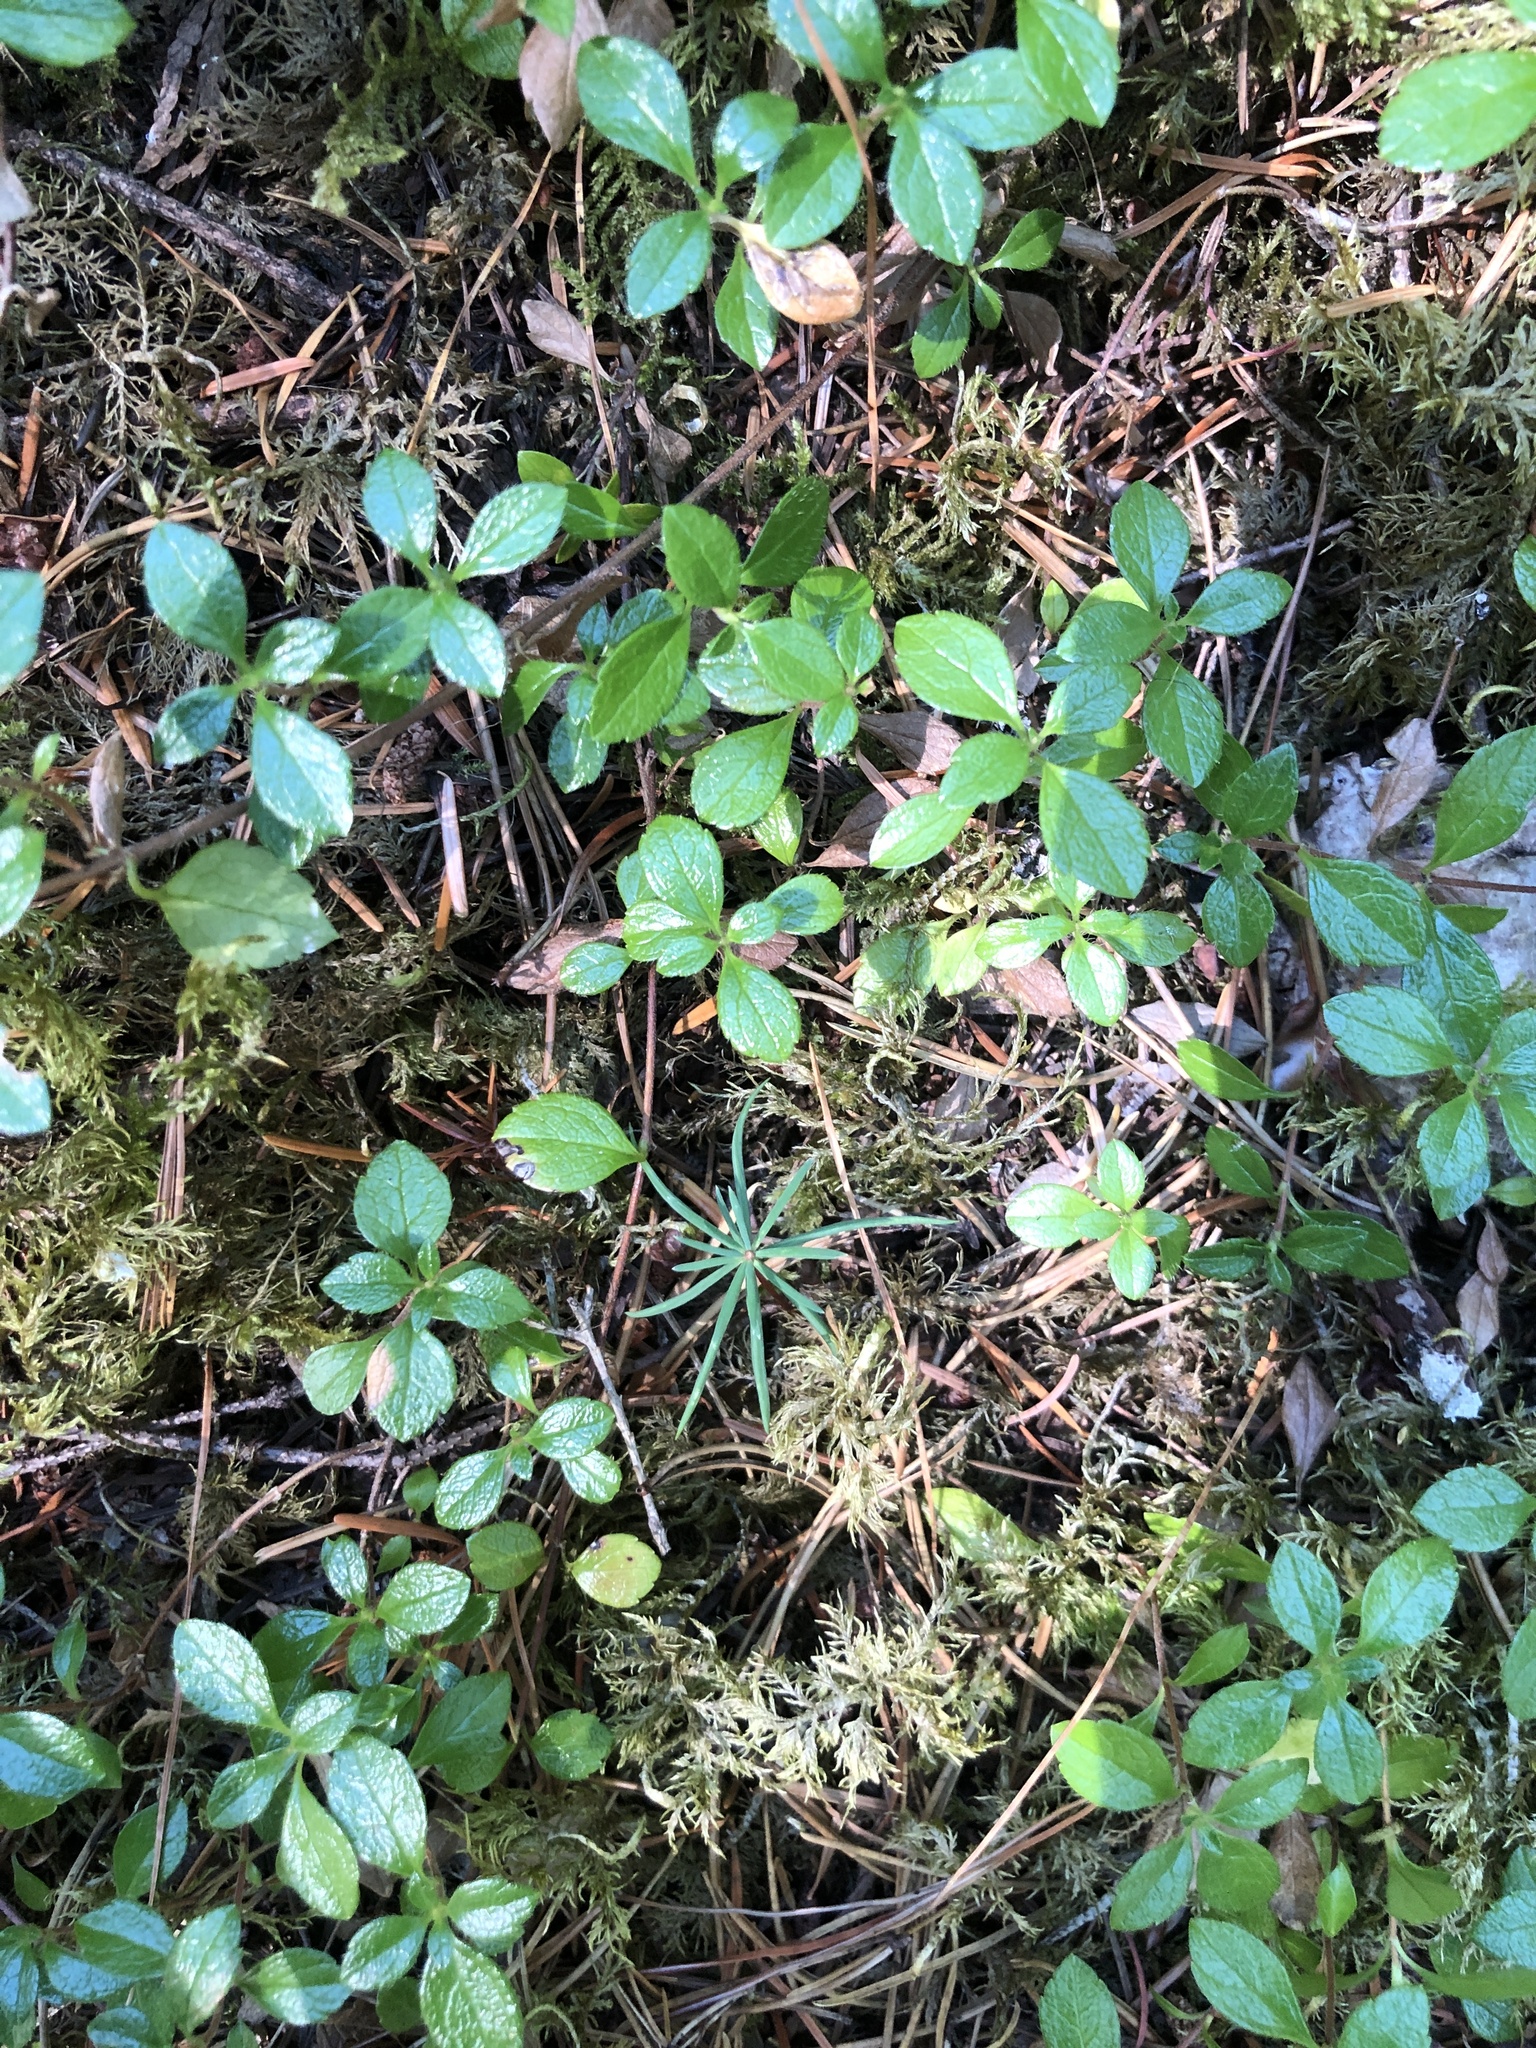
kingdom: Plantae
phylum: Tracheophyta
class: Magnoliopsida
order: Dipsacales
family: Caprifoliaceae
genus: Linnaea
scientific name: Linnaea borealis
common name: Twinflower
